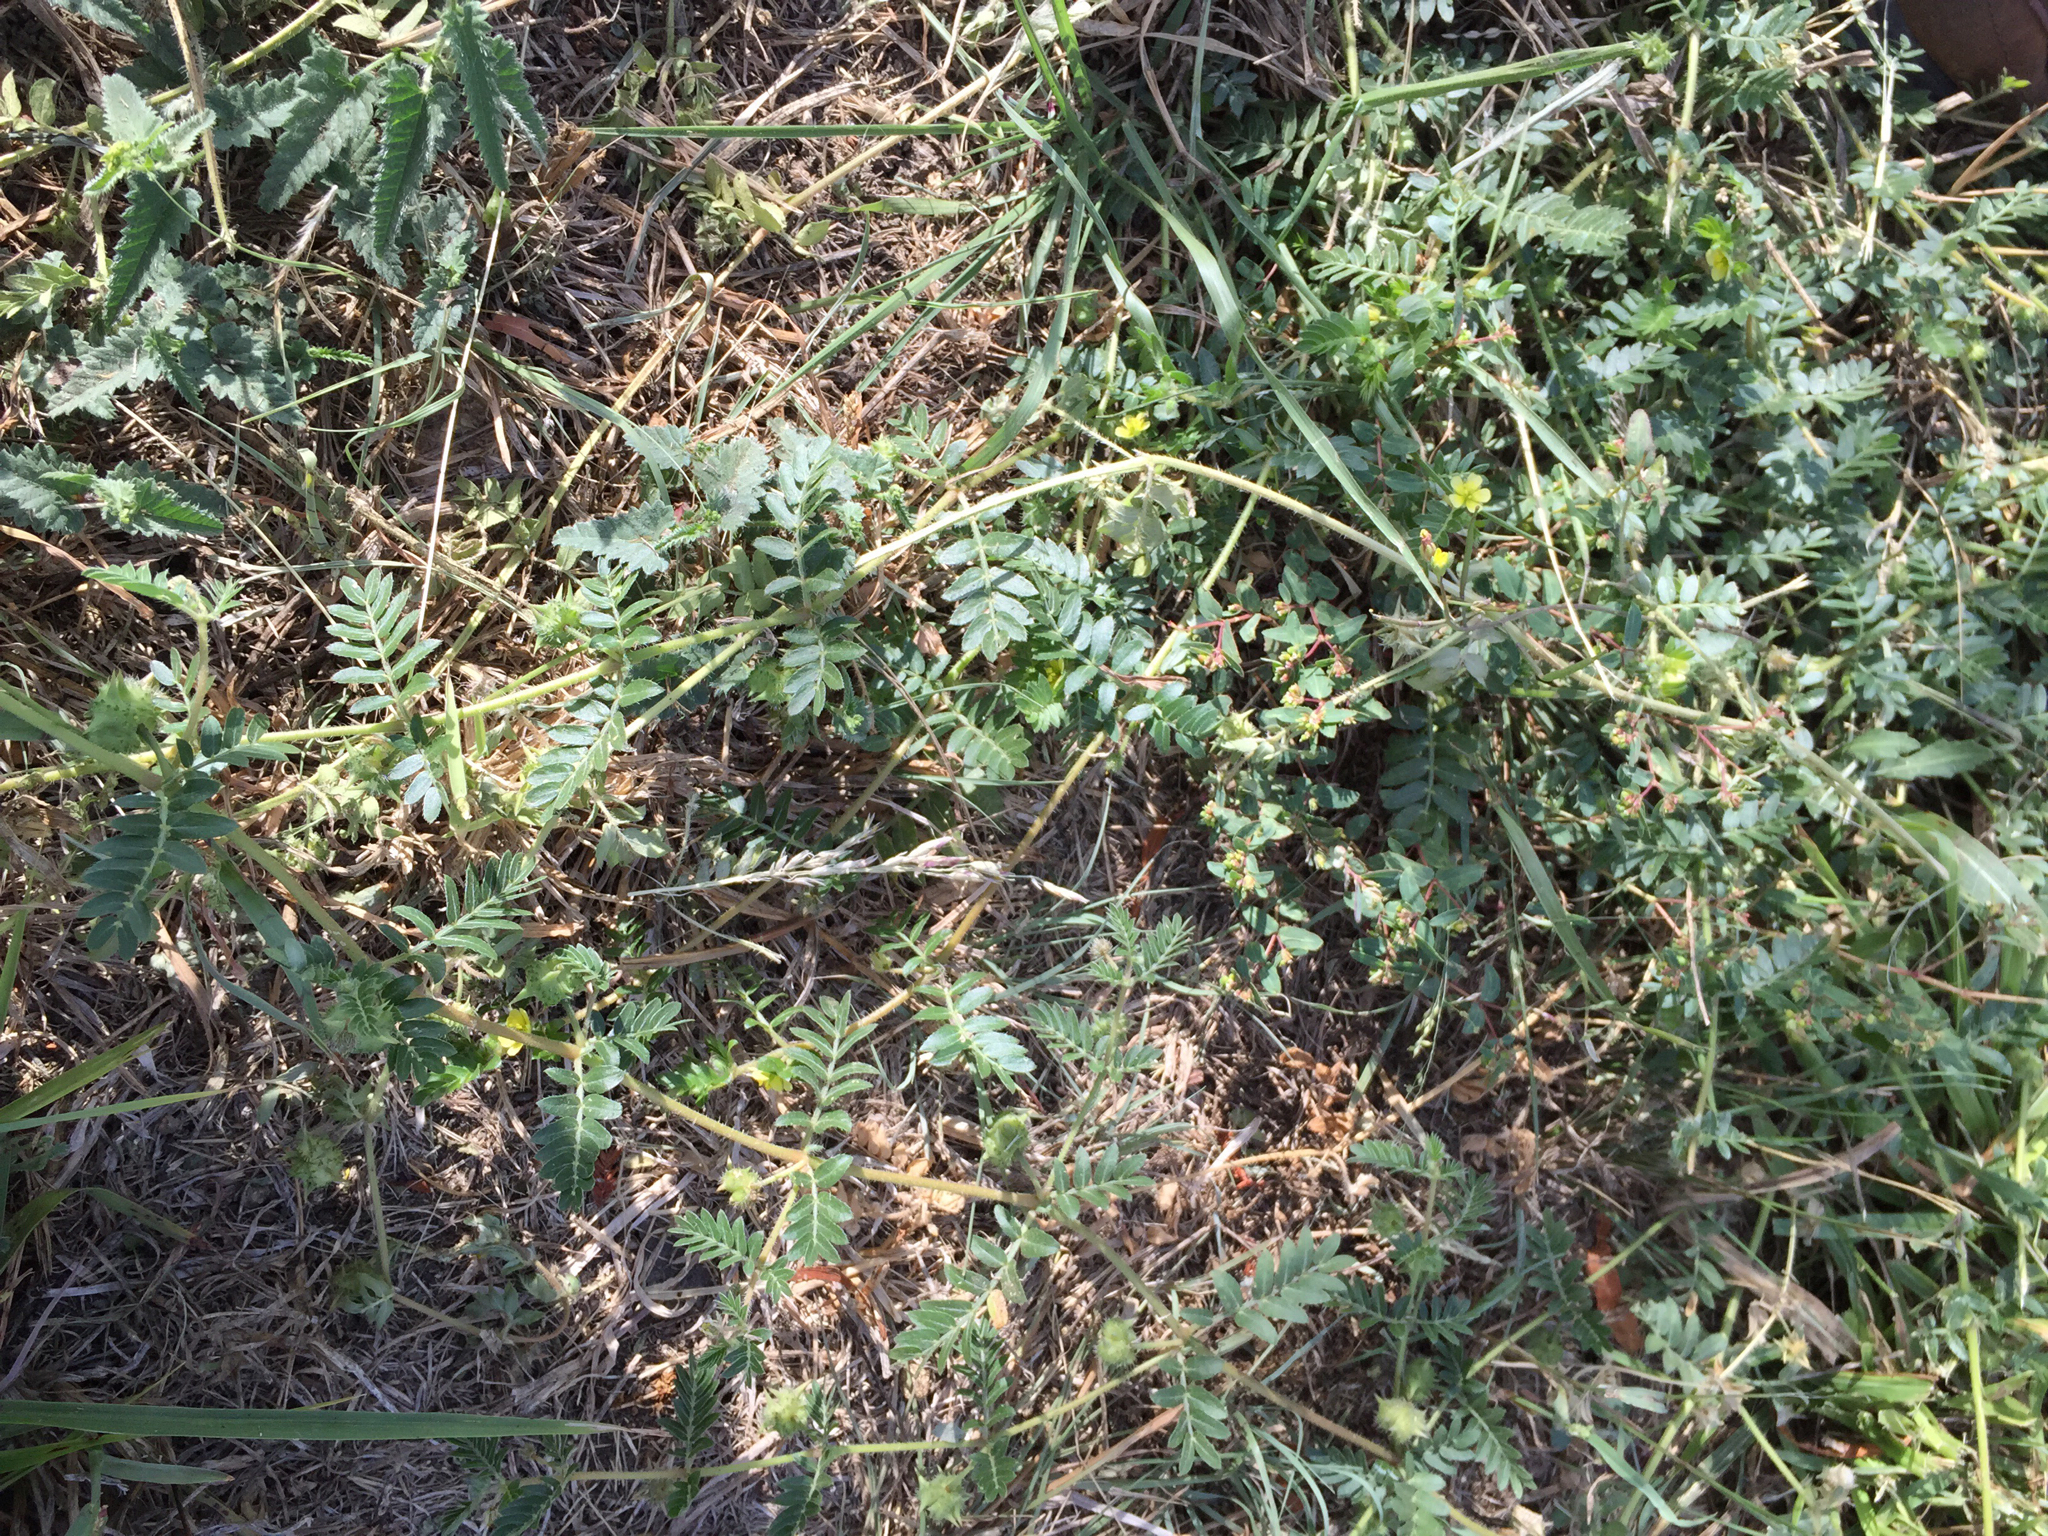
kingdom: Plantae
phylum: Tracheophyta
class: Magnoliopsida
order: Zygophyllales
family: Zygophyllaceae
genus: Tribulus
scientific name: Tribulus terrestris
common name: Puncturevine
